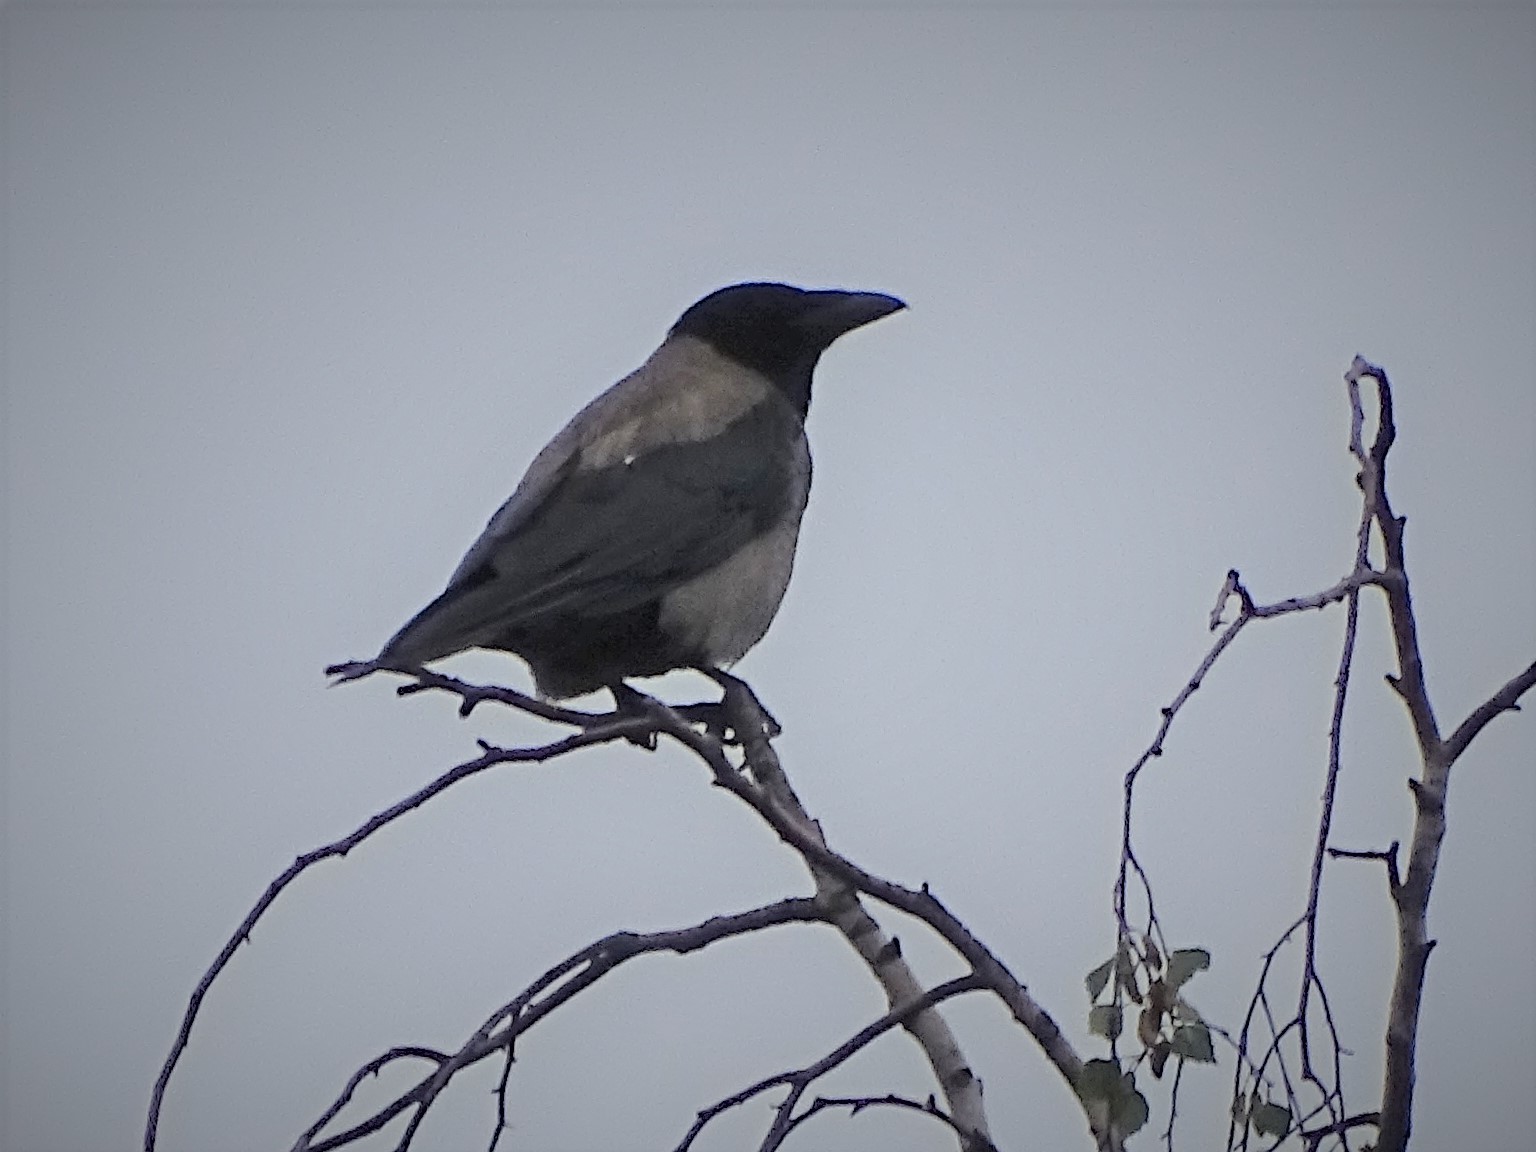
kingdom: Animalia
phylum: Chordata
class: Aves
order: Passeriformes
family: Corvidae
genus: Corvus
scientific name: Corvus cornix
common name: Hooded crow
